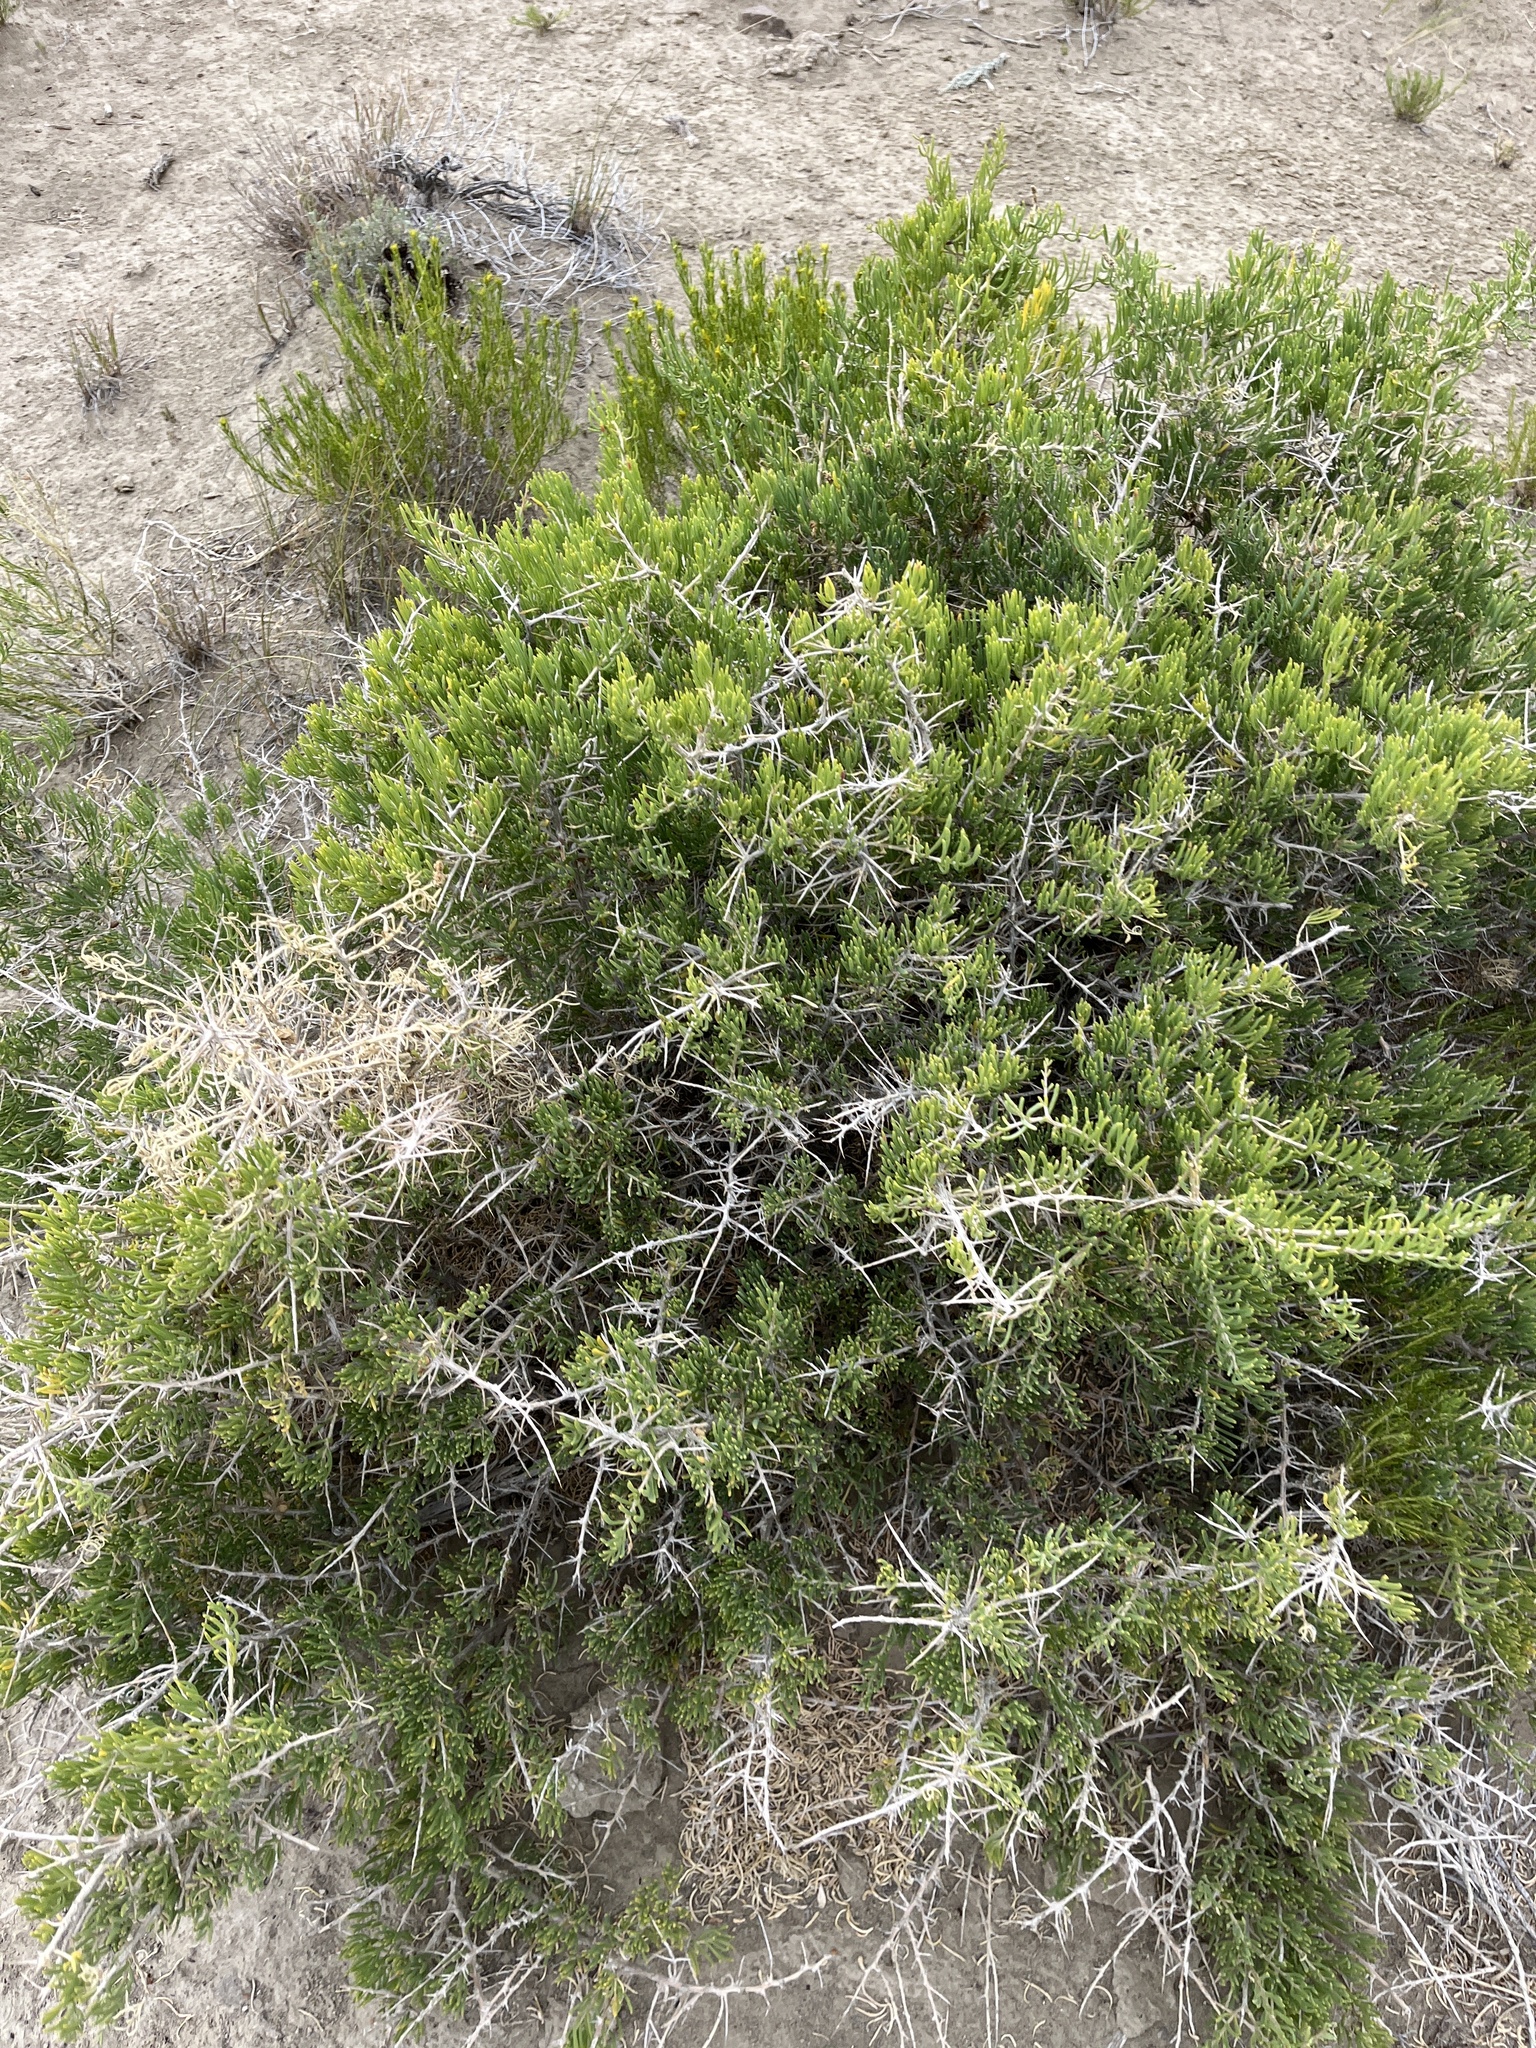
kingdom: Plantae
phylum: Tracheophyta
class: Magnoliopsida
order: Caryophyllales
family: Sarcobataceae
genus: Sarcobatus
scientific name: Sarcobatus vermiculatus
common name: Greasewood
